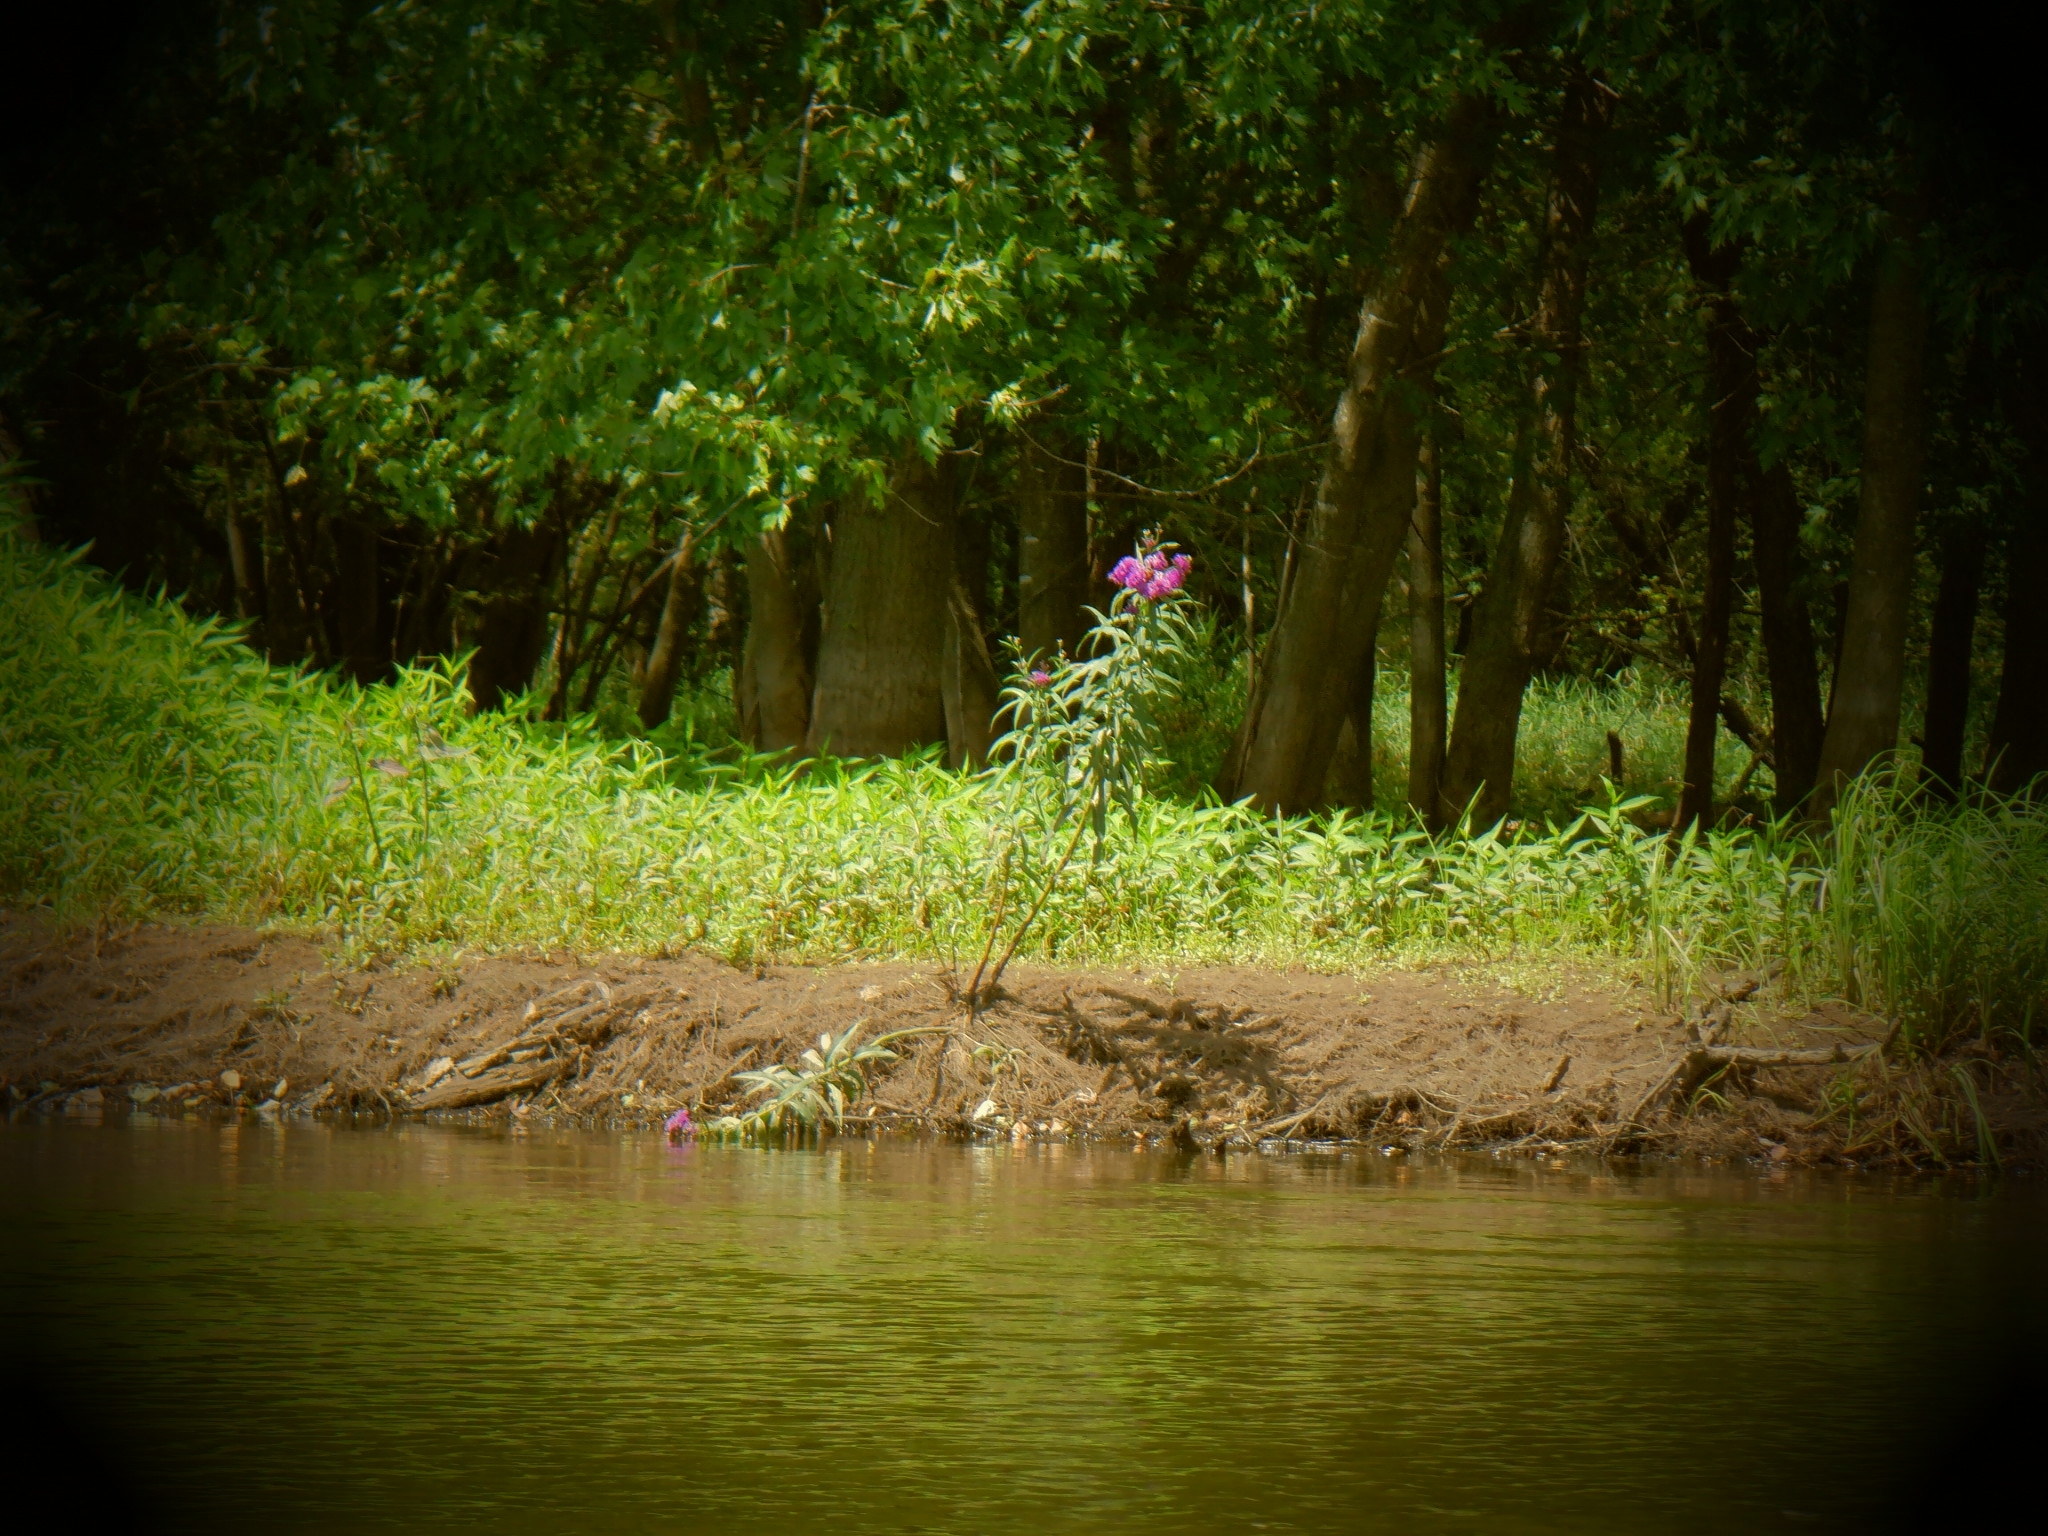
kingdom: Plantae
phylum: Tracheophyta
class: Magnoliopsida
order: Gentianales
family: Apocynaceae
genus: Asclepias
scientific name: Asclepias incarnata
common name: Swamp milkweed
